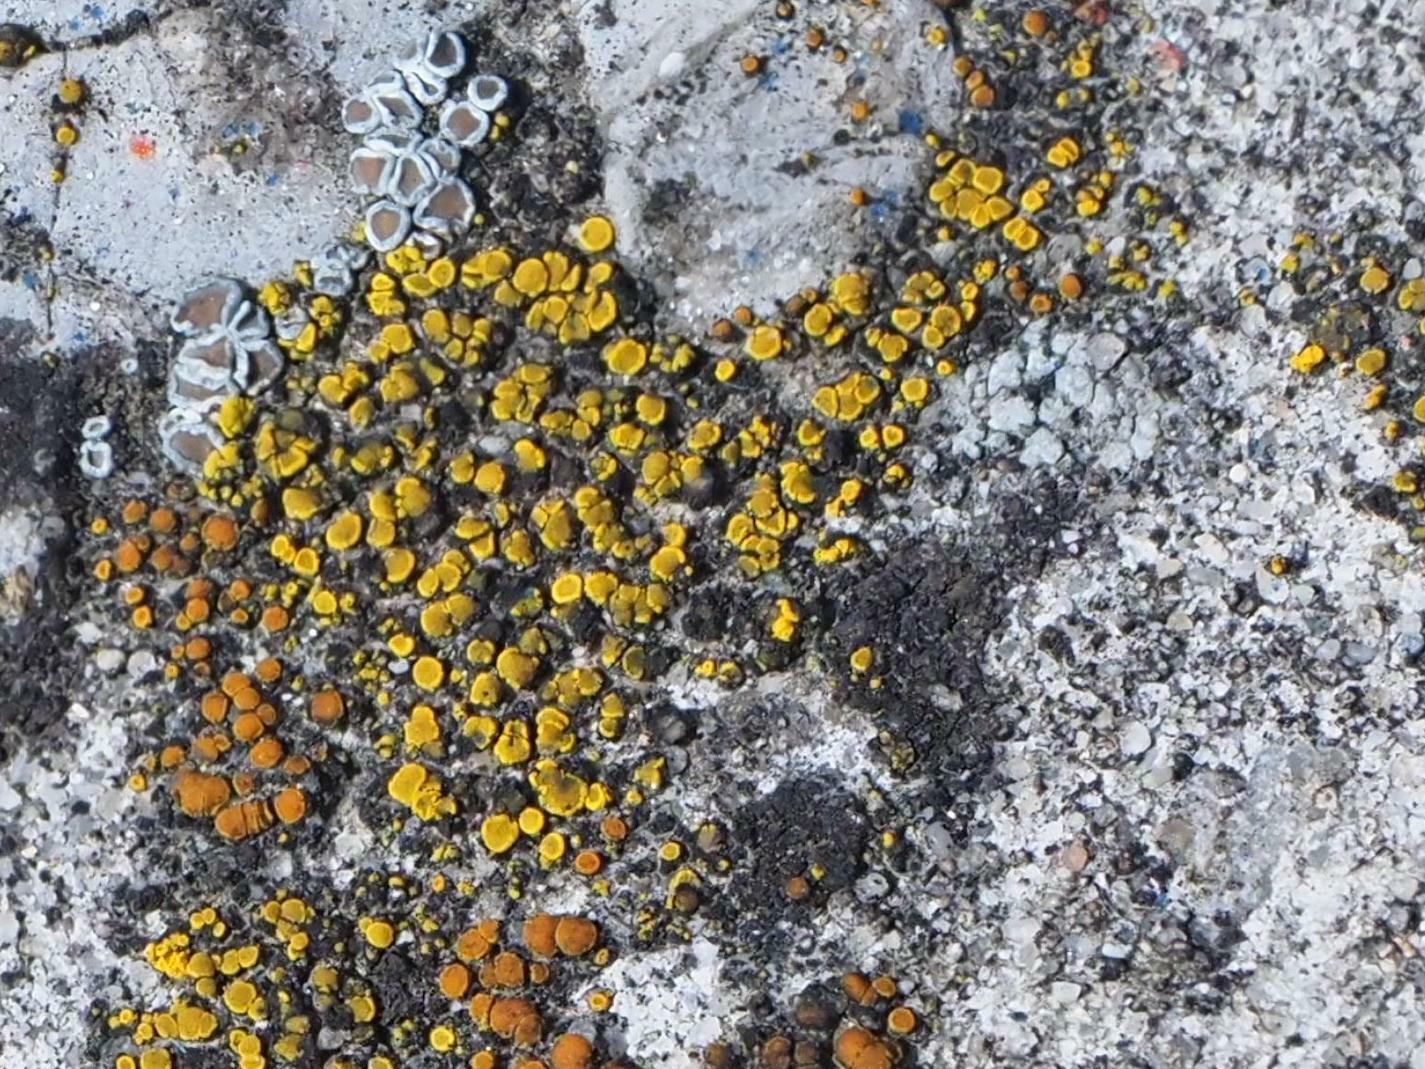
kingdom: Fungi
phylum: Ascomycota
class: Candelariomycetes
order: Candelariales
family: Candelariaceae
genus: Candelariella
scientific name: Candelariella aurella
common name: Hidden goldspeck lichen
